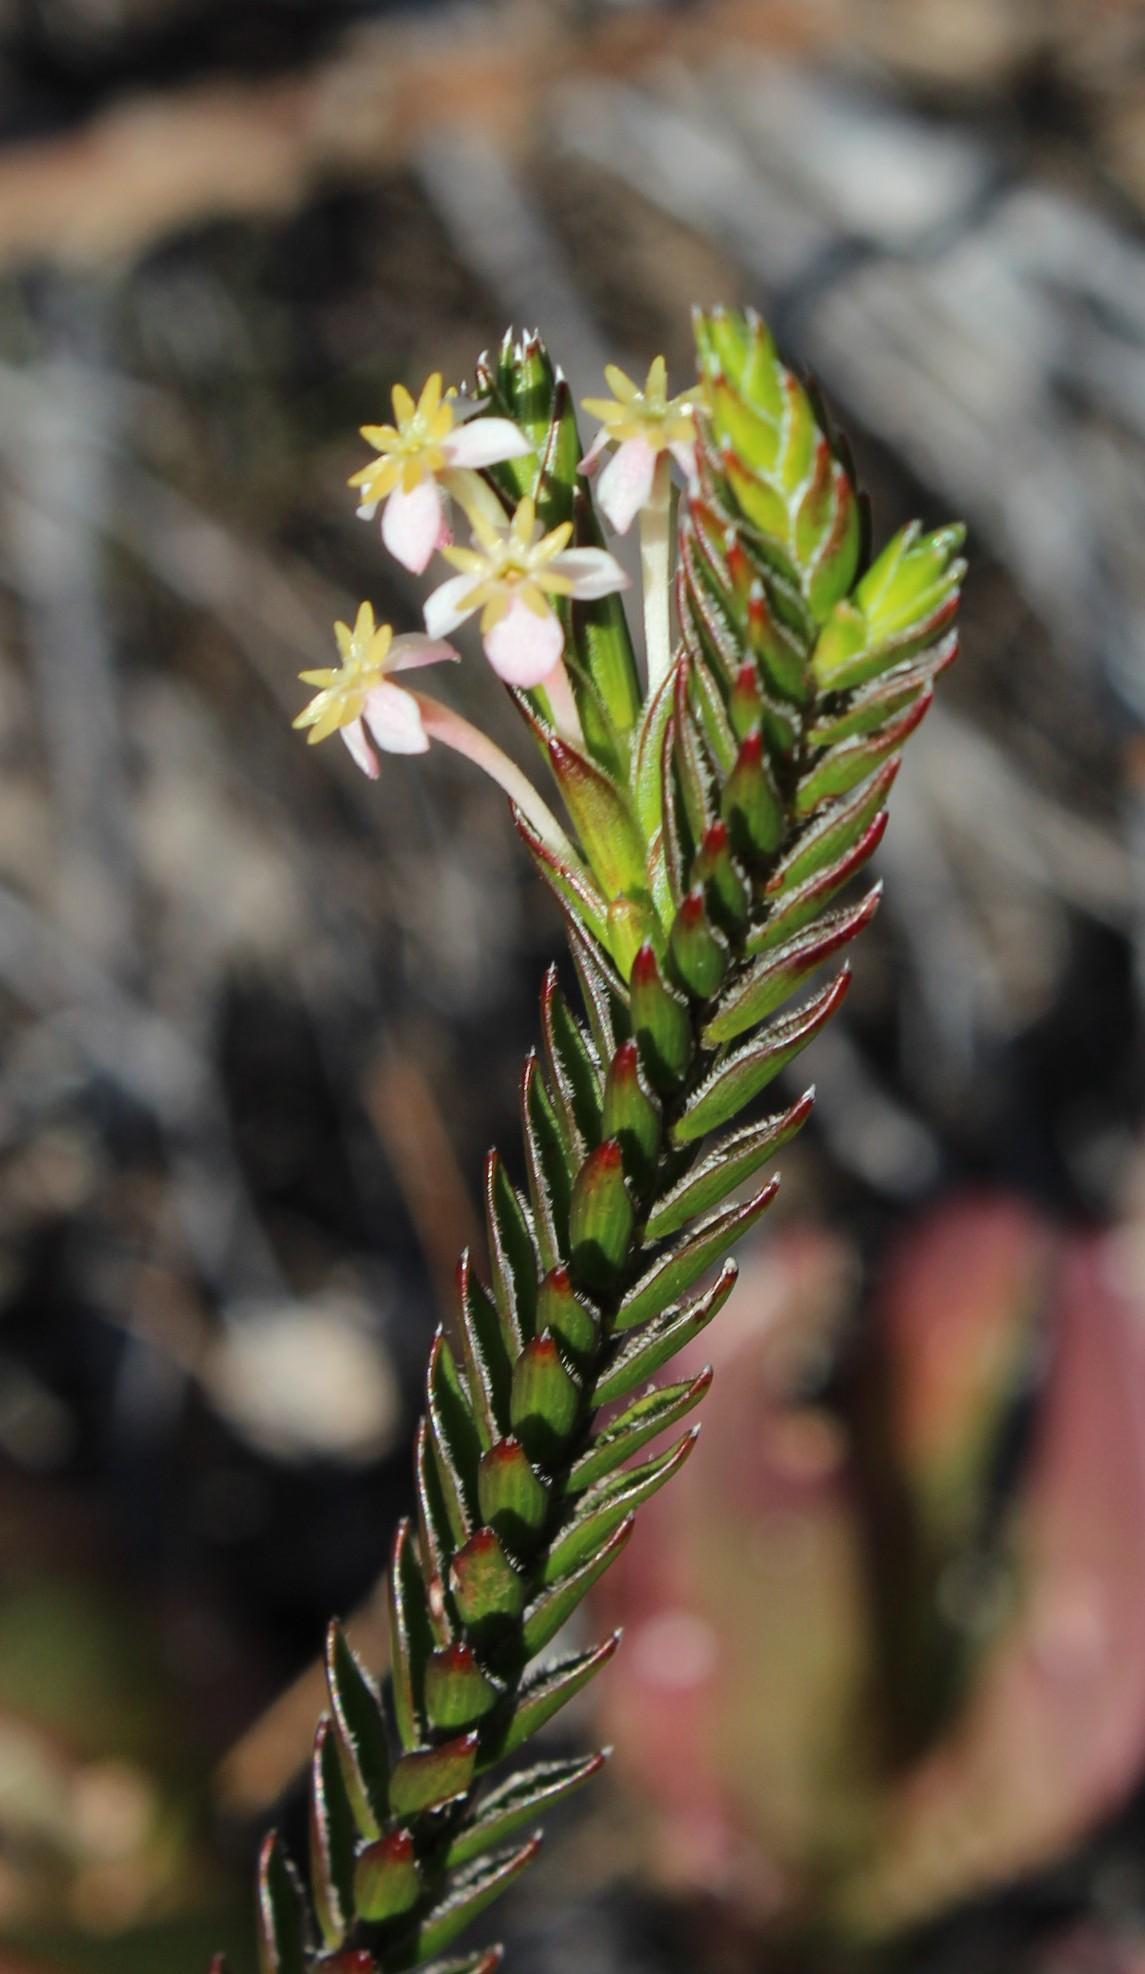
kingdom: Plantae
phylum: Tracheophyta
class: Magnoliopsida
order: Malvales
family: Thymelaeaceae
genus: Struthiola
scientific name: Struthiola ciliata
